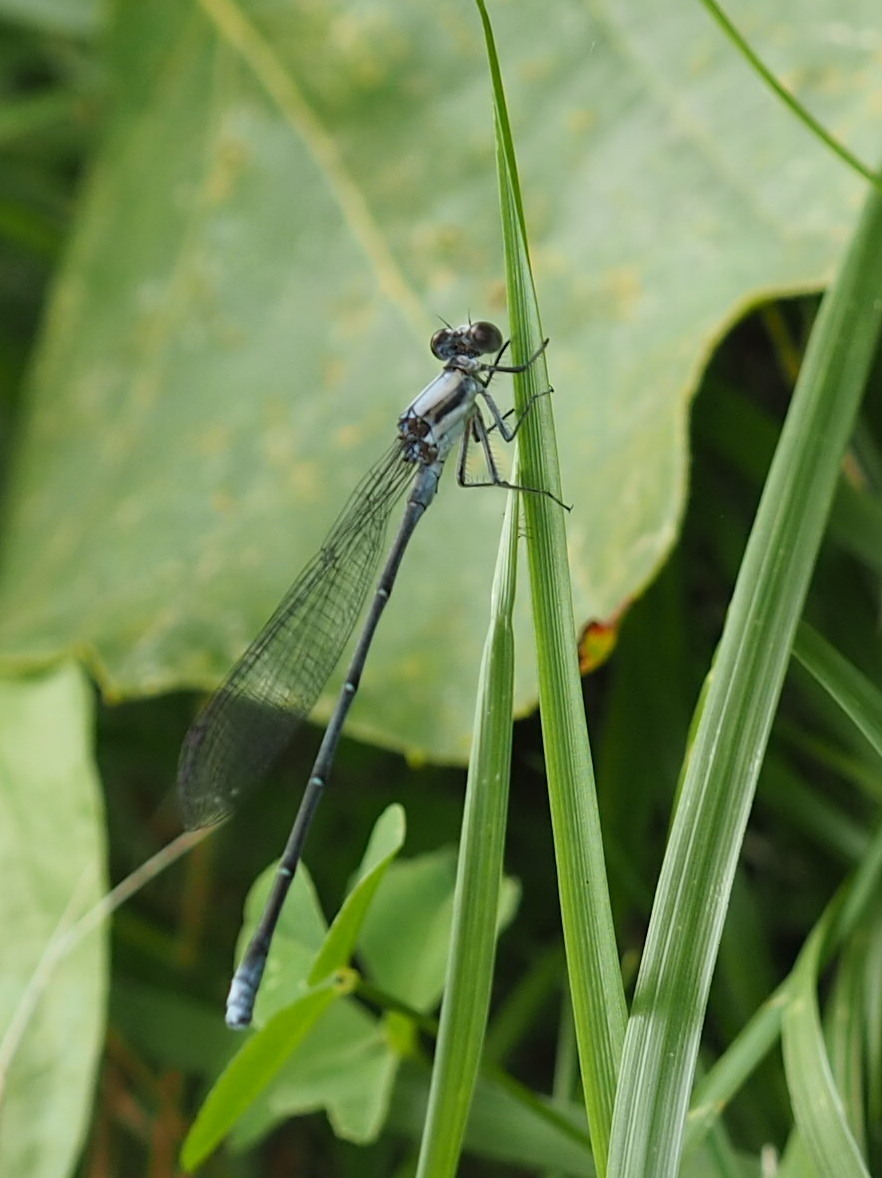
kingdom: Animalia
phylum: Arthropoda
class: Insecta
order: Odonata
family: Coenagrionidae
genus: Argia
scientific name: Argia moesta
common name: Powdered dancer
